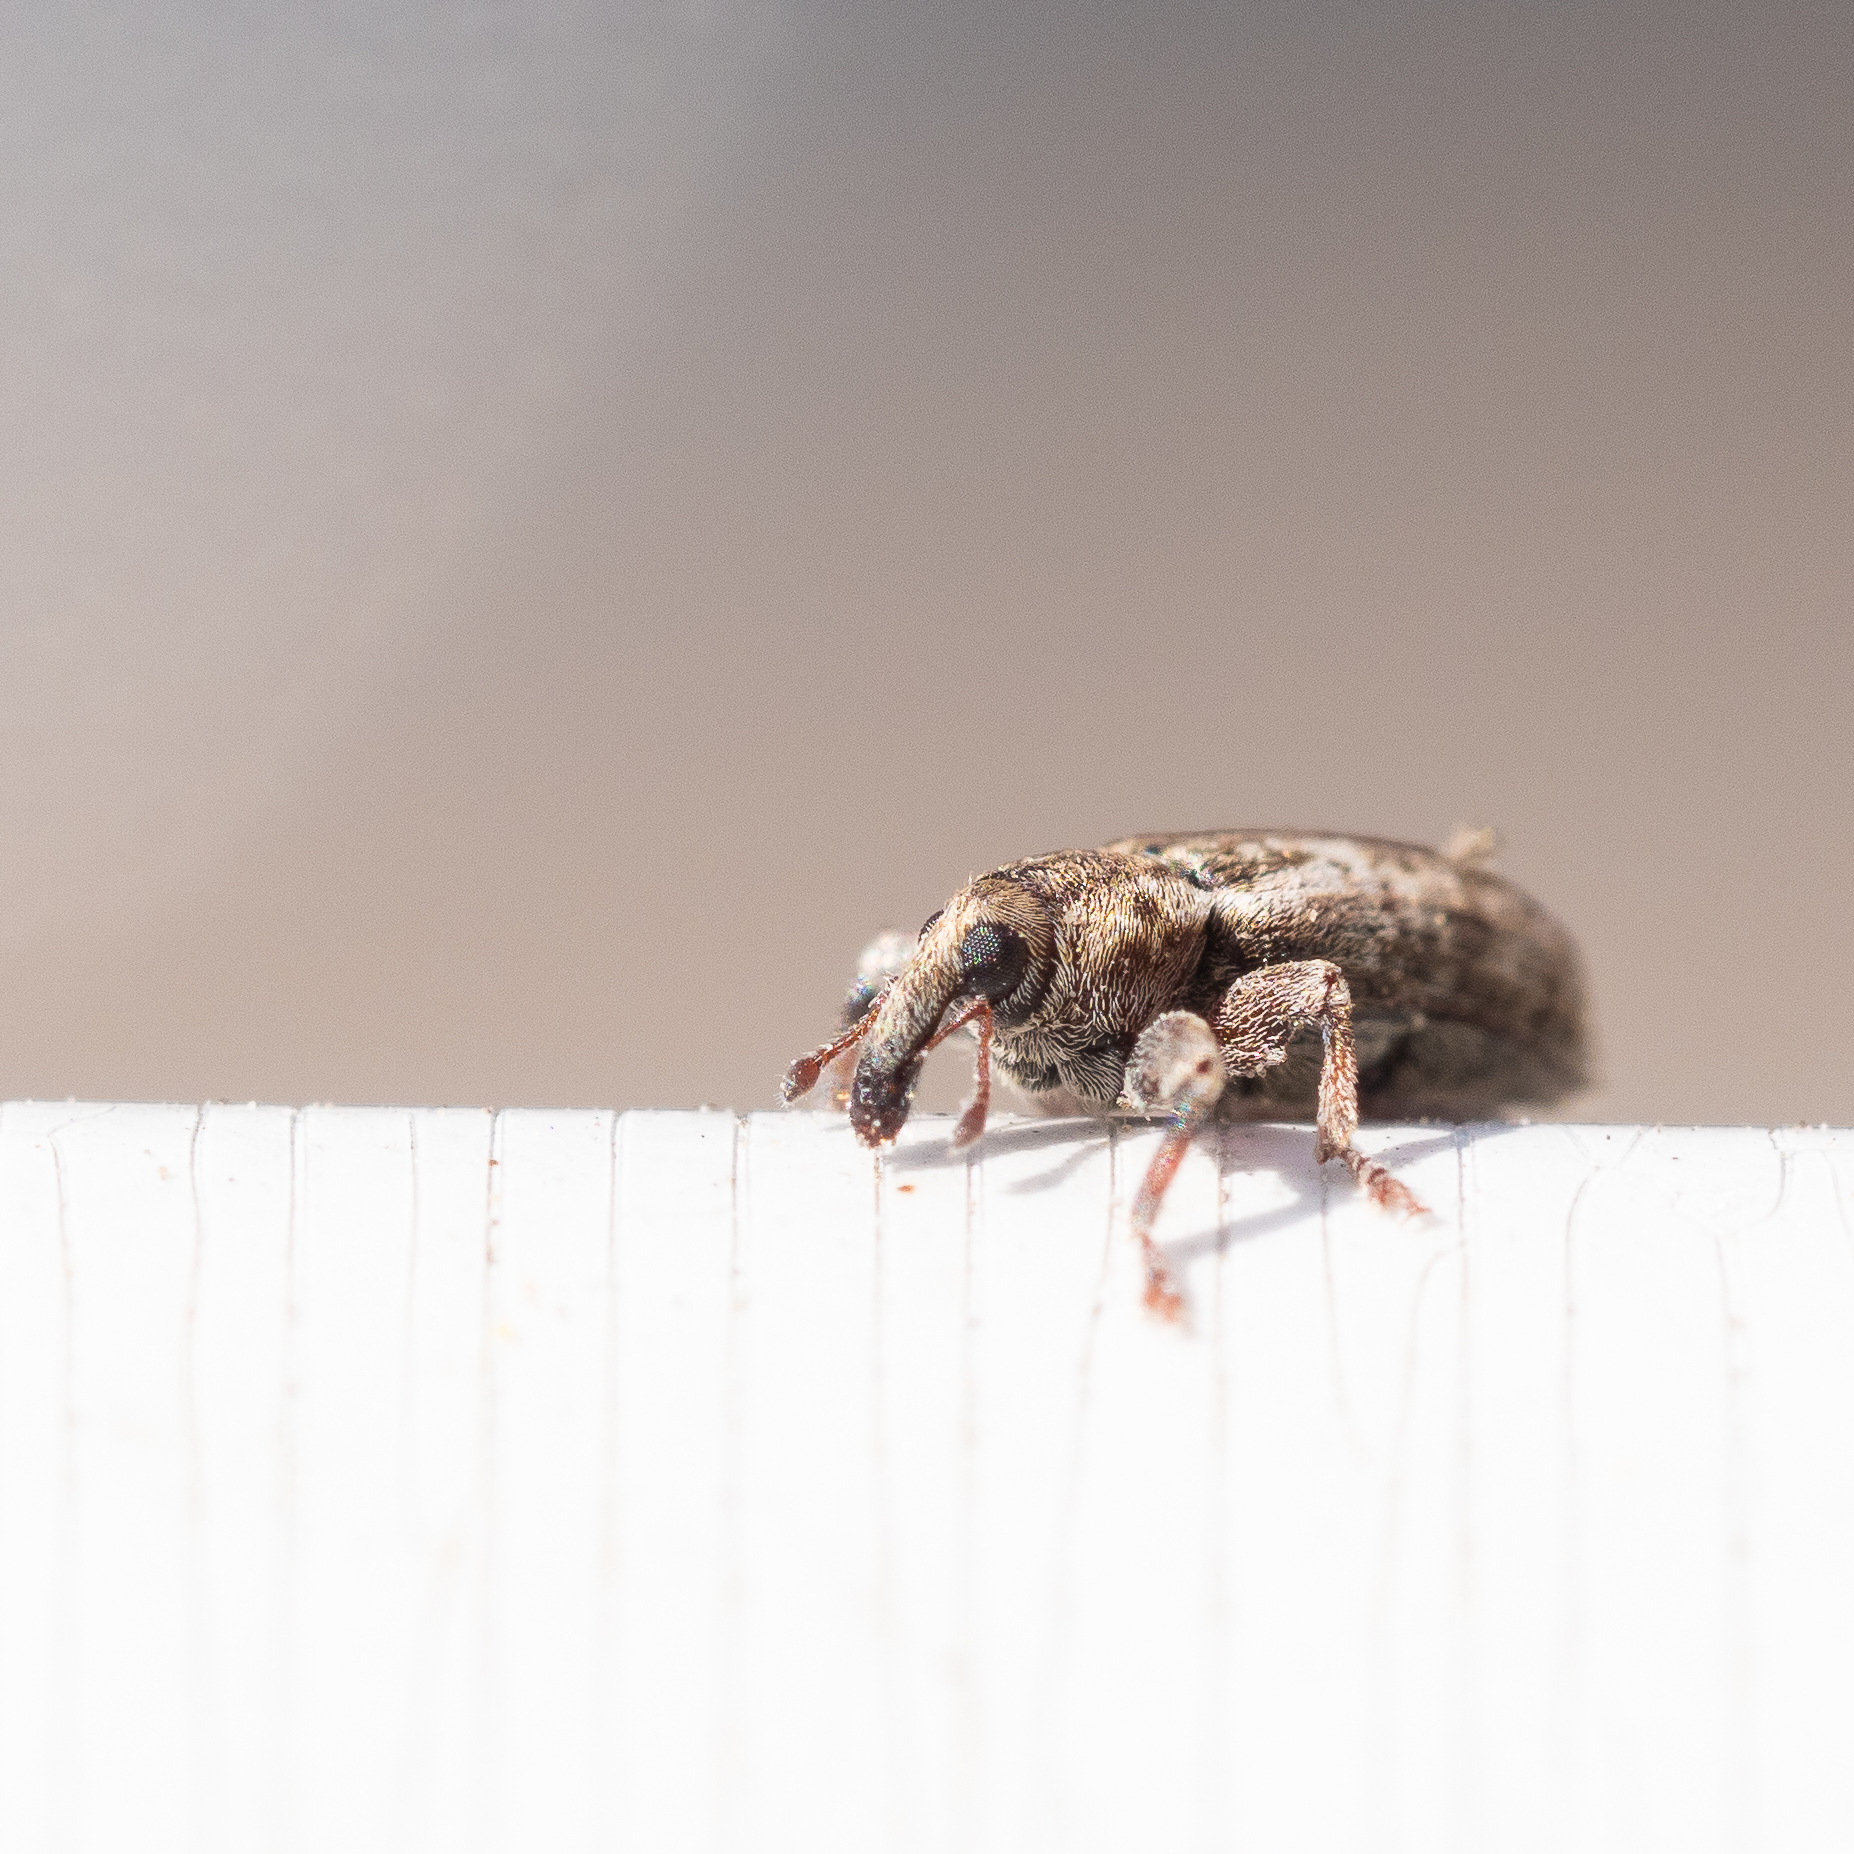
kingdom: Animalia
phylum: Arthropoda
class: Insecta
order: Coleoptera
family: Curculionidae
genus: Dorytomus
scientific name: Dorytomus ictor
